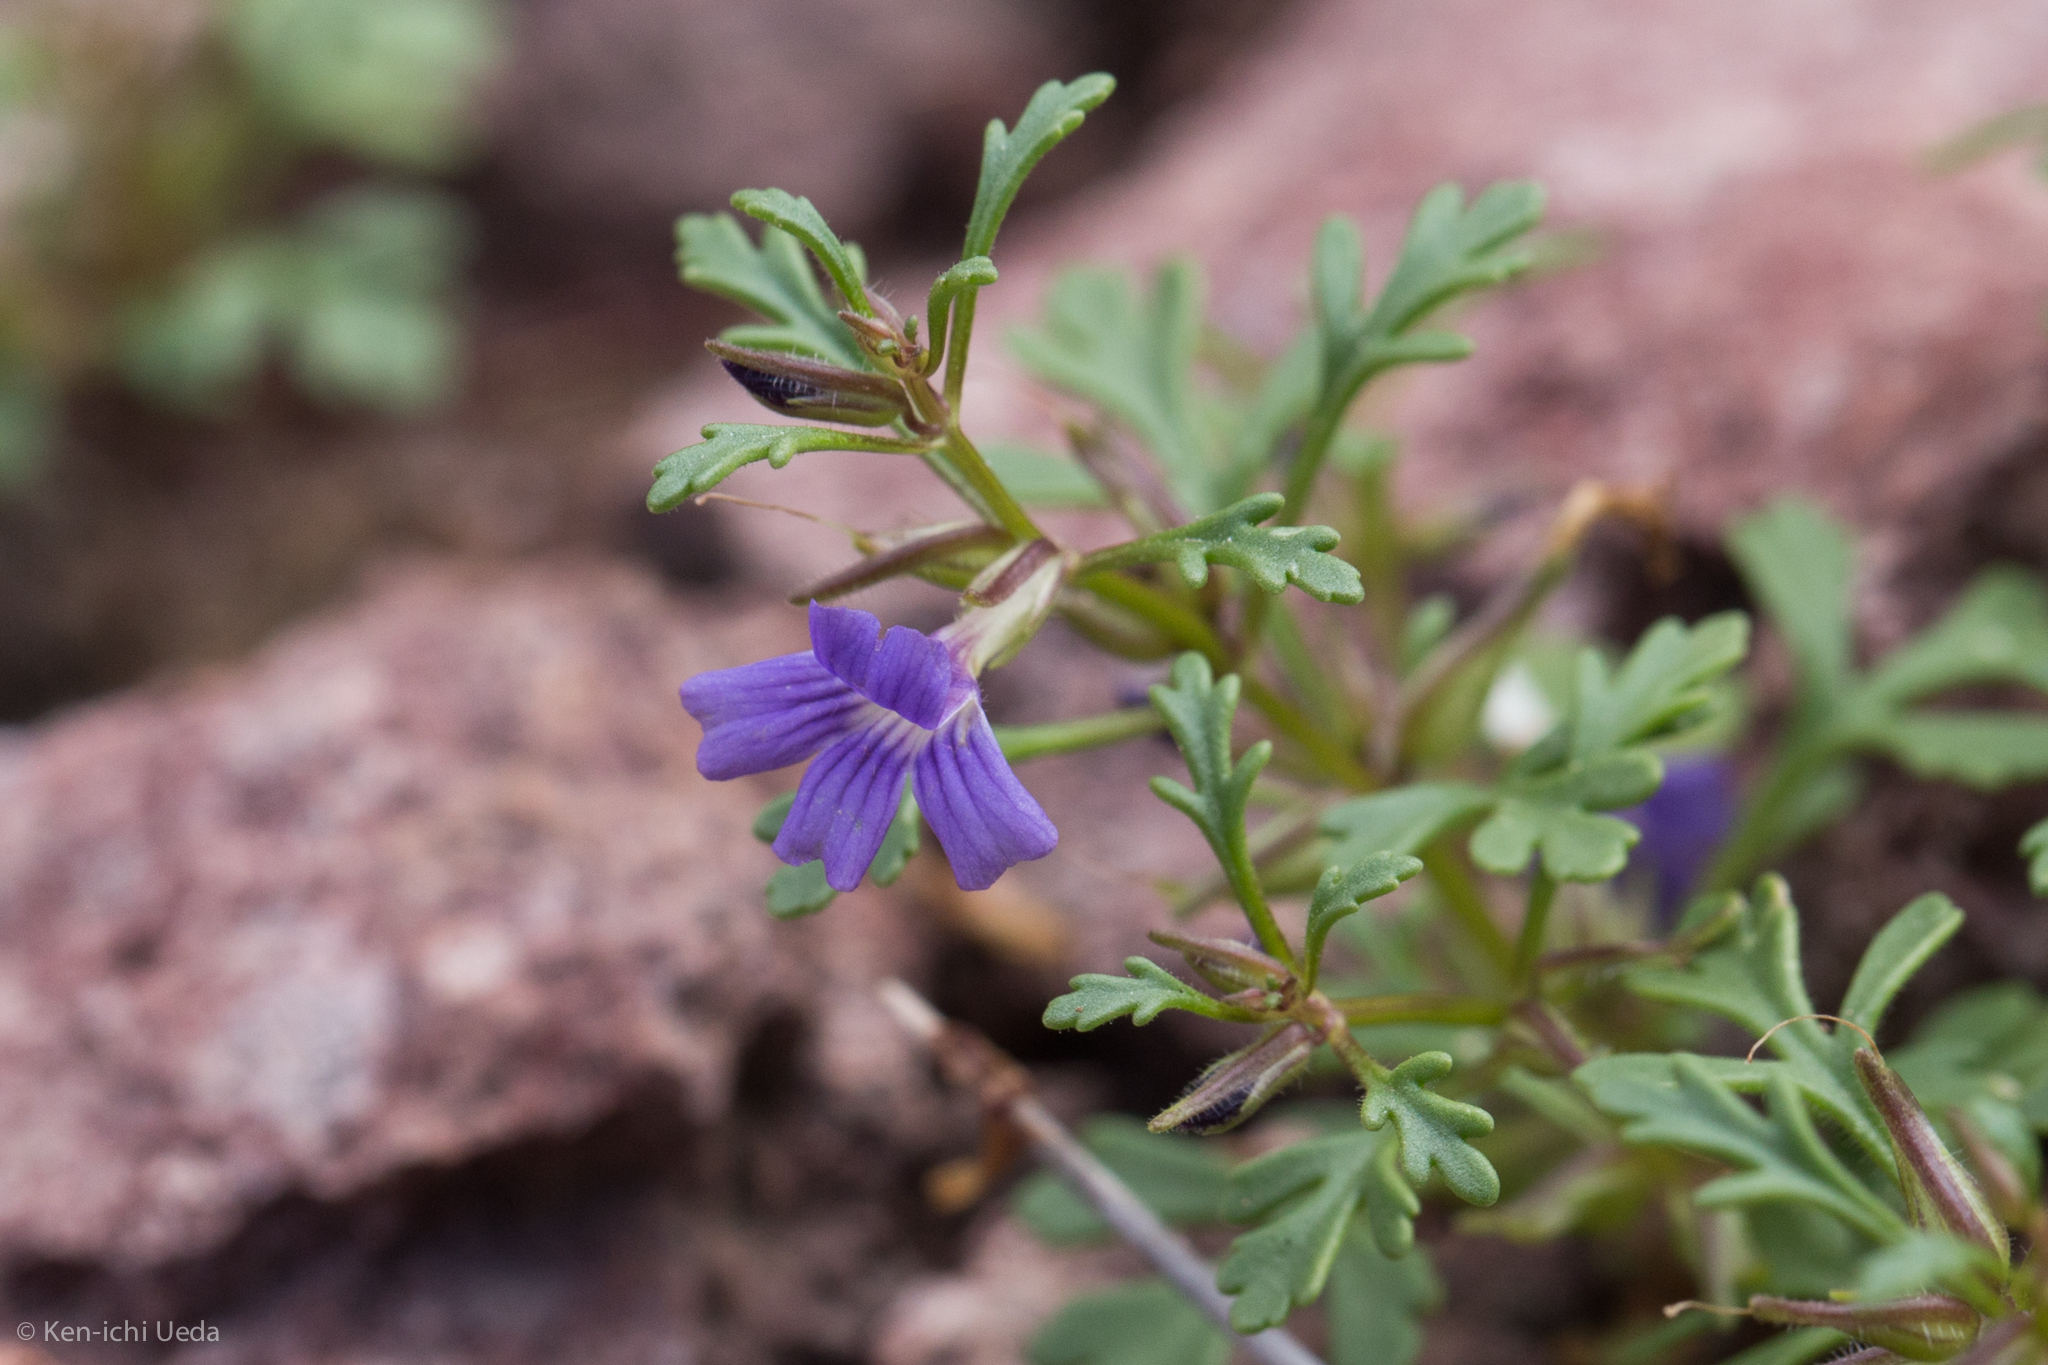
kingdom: Plantae
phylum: Tracheophyta
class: Magnoliopsida
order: Lamiales
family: Plantaginaceae
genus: Schistophragma
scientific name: Schistophragma intermedium
